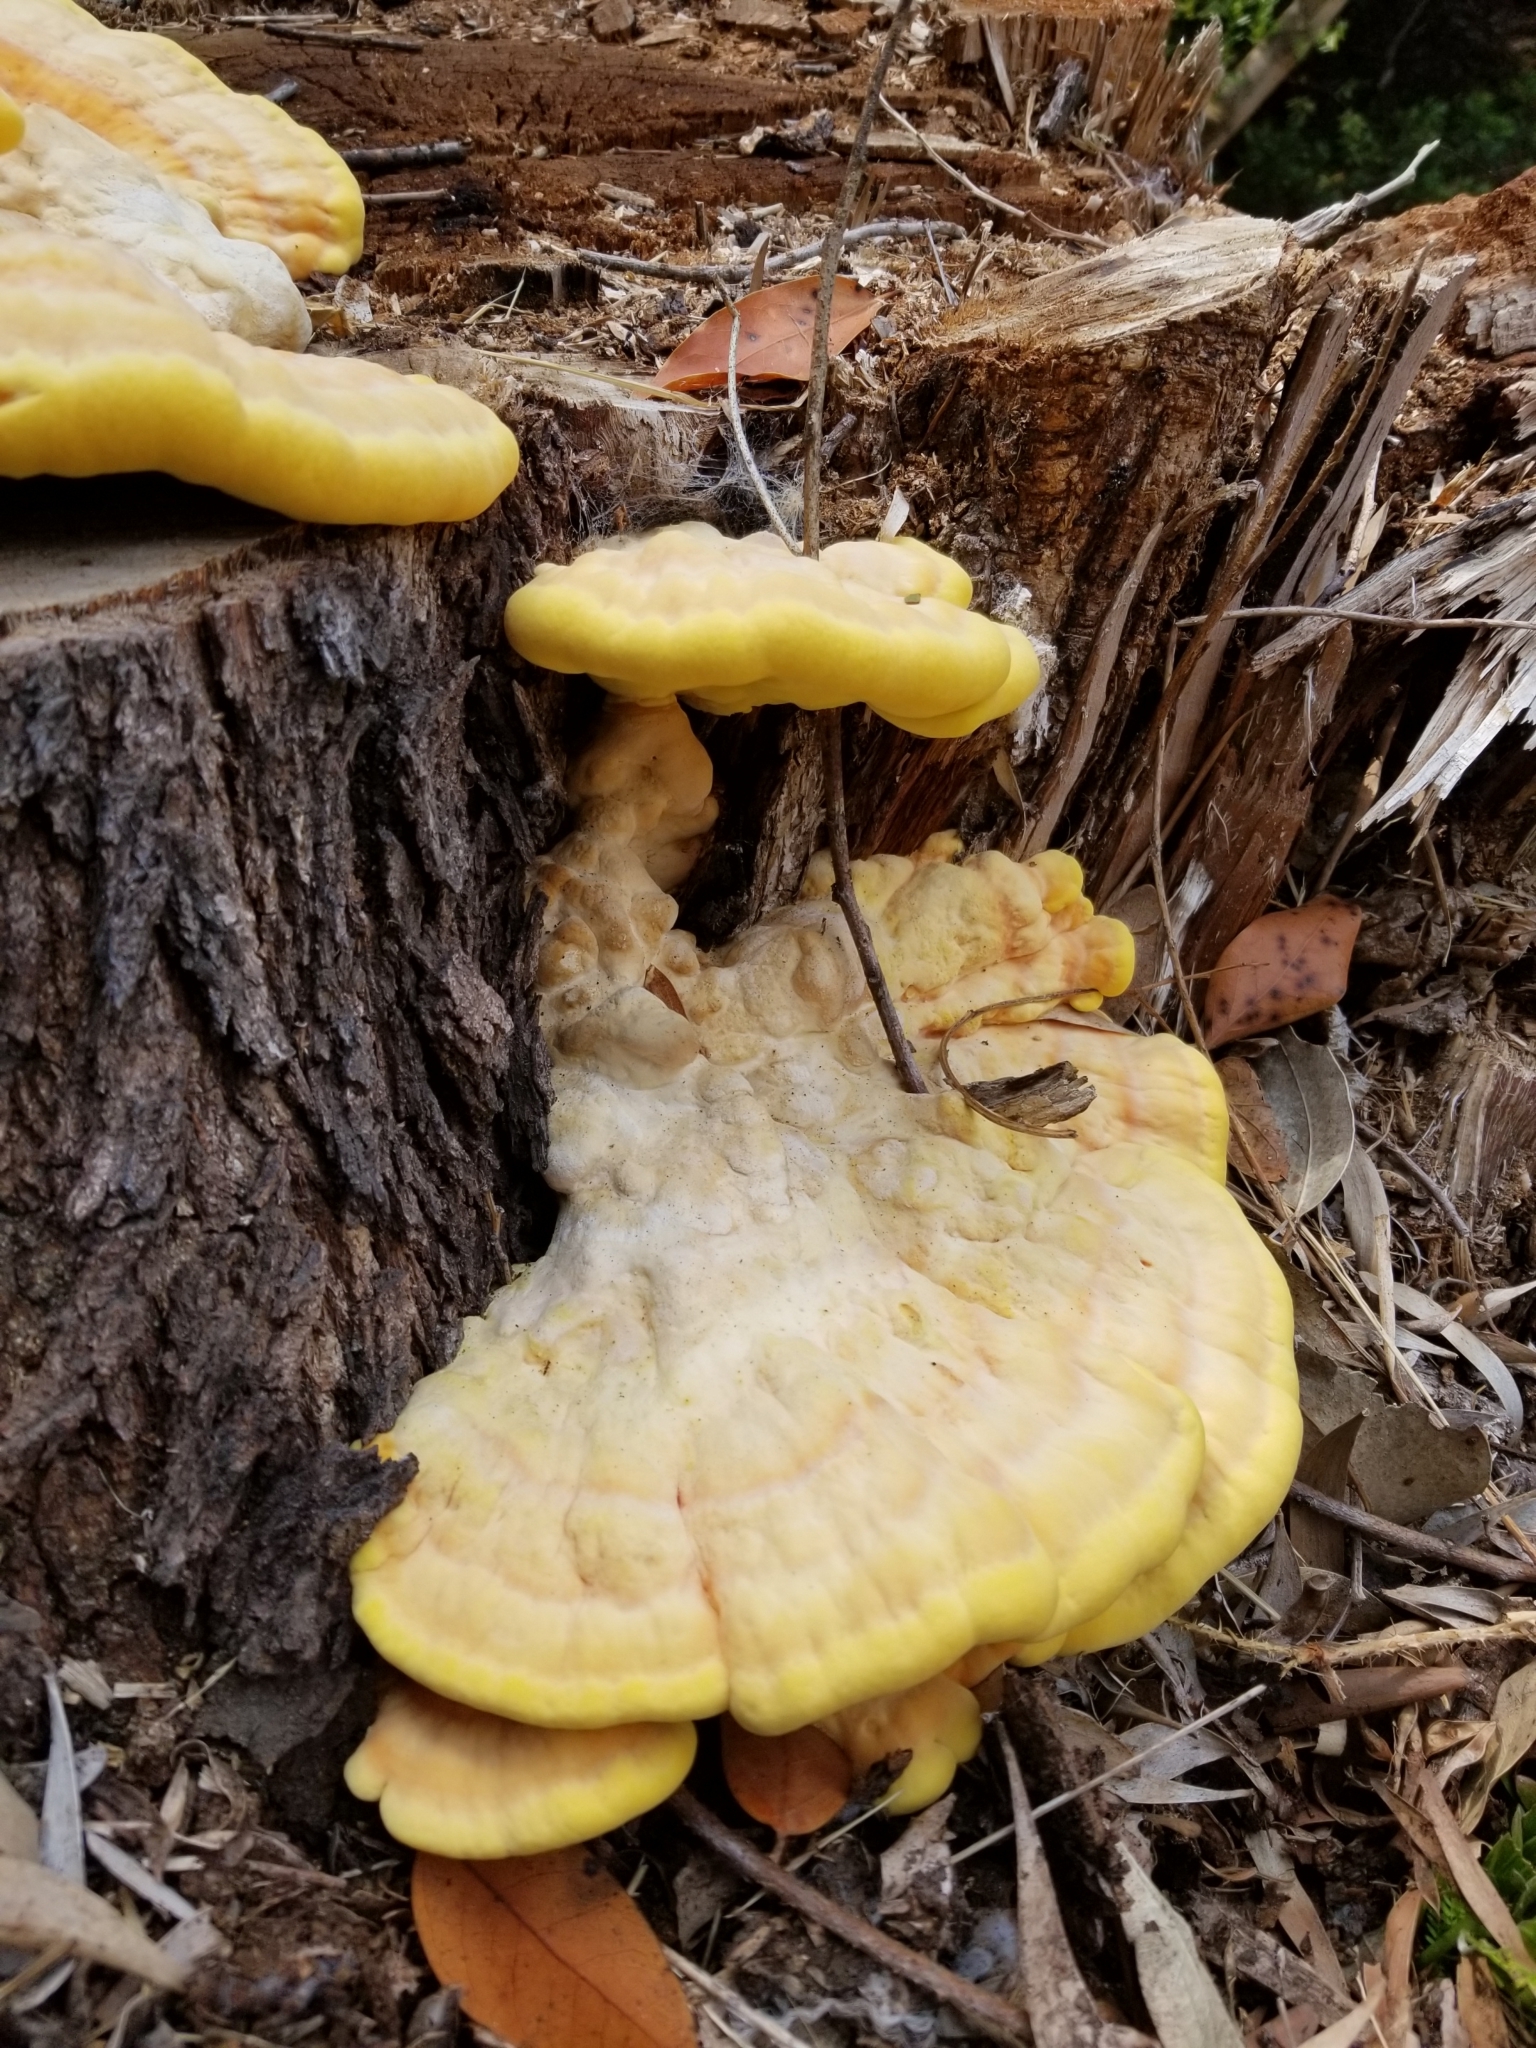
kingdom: Fungi
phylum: Basidiomycota
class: Agaricomycetes
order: Polyporales
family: Laetiporaceae
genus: Laetiporus
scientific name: Laetiporus gilbertsonii
